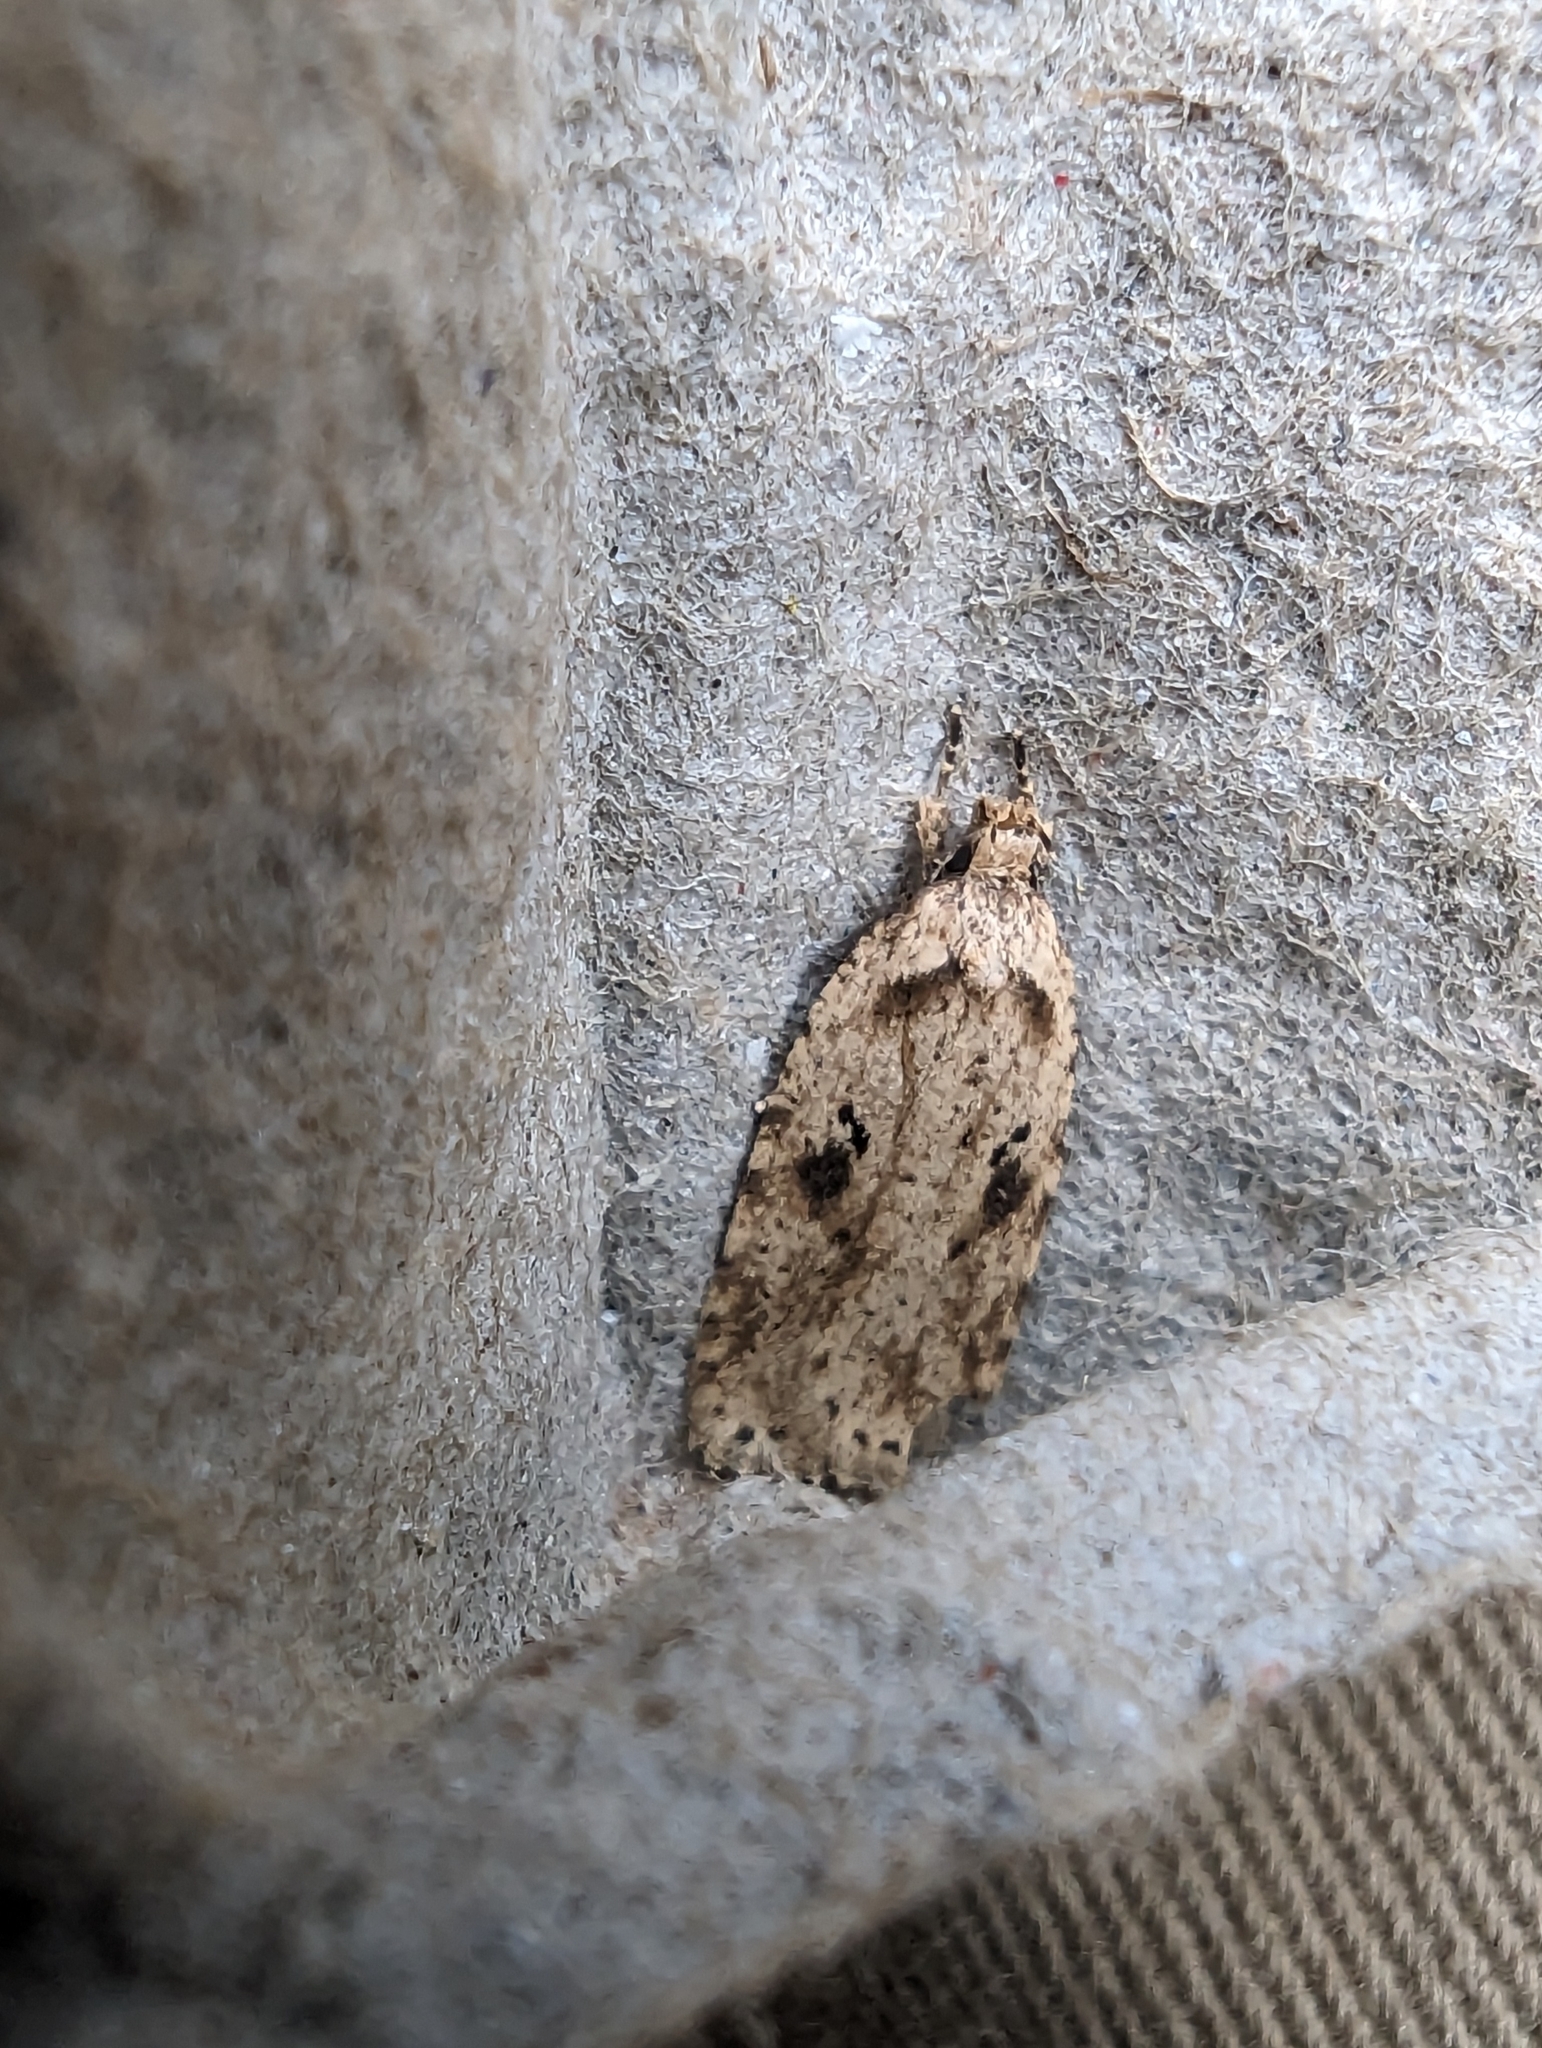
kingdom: Animalia
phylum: Arthropoda
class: Insecta
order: Lepidoptera
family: Depressariidae
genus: Agonopterix
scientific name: Agonopterix arenella
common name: Brindled flat-body
